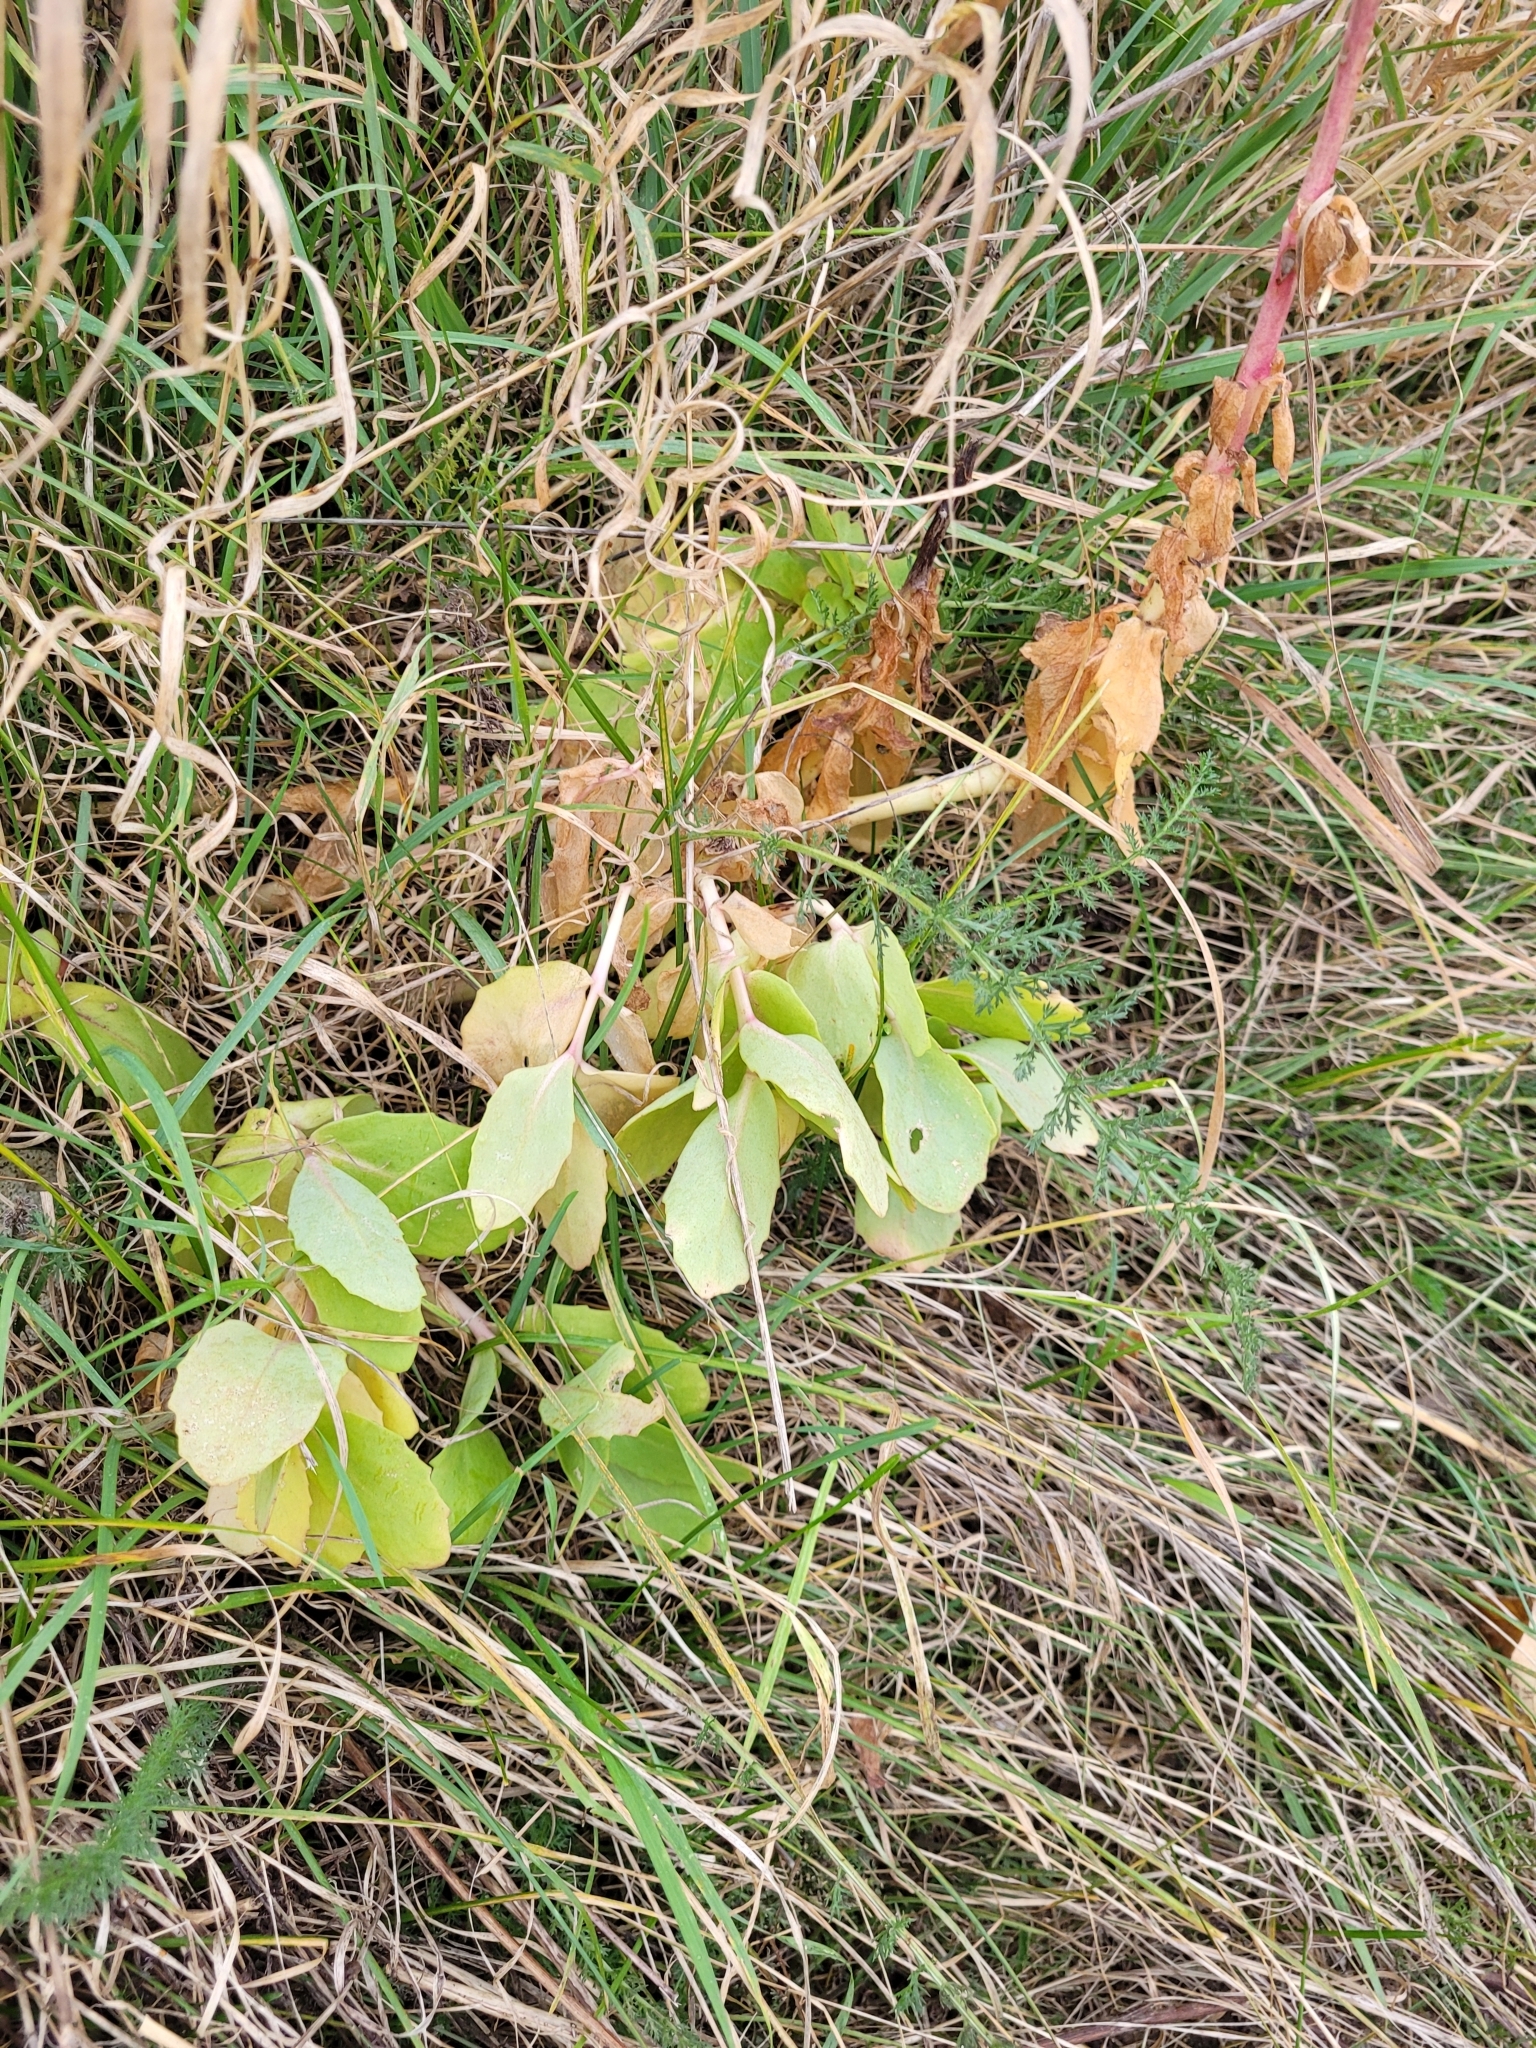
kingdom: Plantae
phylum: Tracheophyta
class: Magnoliopsida
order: Saxifragales
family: Crassulaceae
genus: Hylotelephium
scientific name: Hylotelephium maximum
